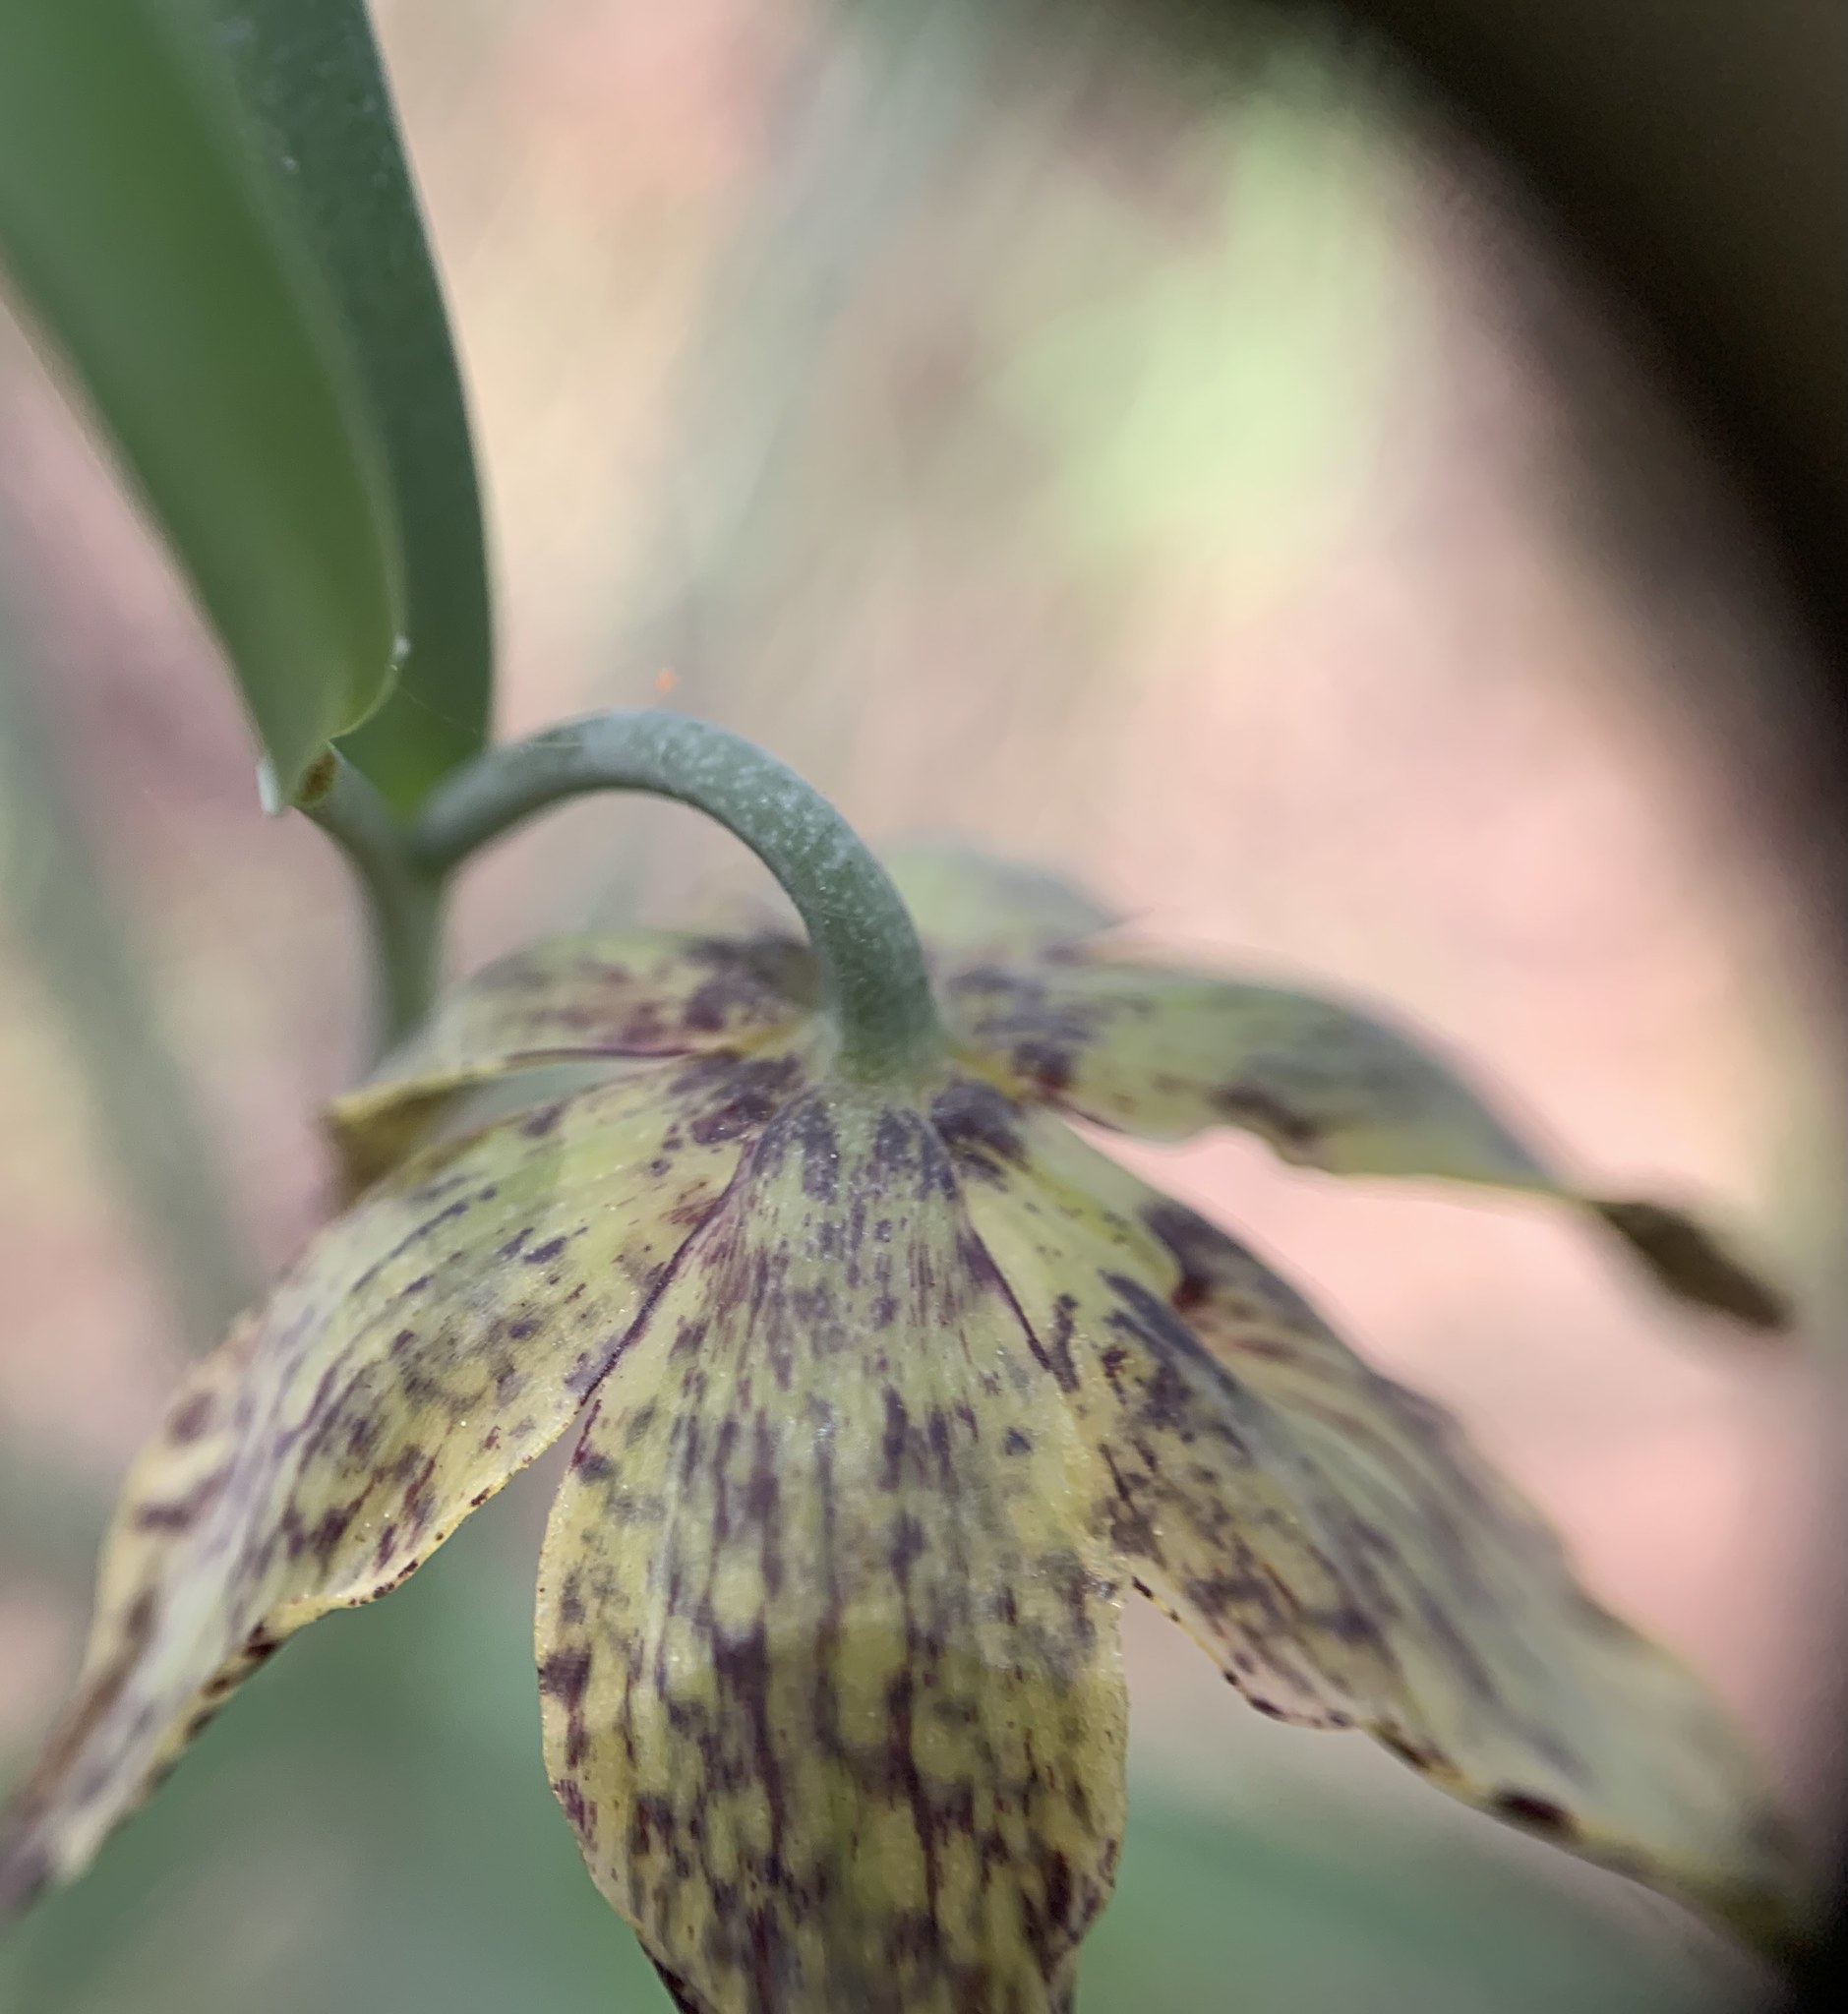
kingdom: Plantae
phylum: Tracheophyta
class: Liliopsida
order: Liliales
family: Liliaceae
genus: Fritillaria
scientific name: Fritillaria atropurpurea
